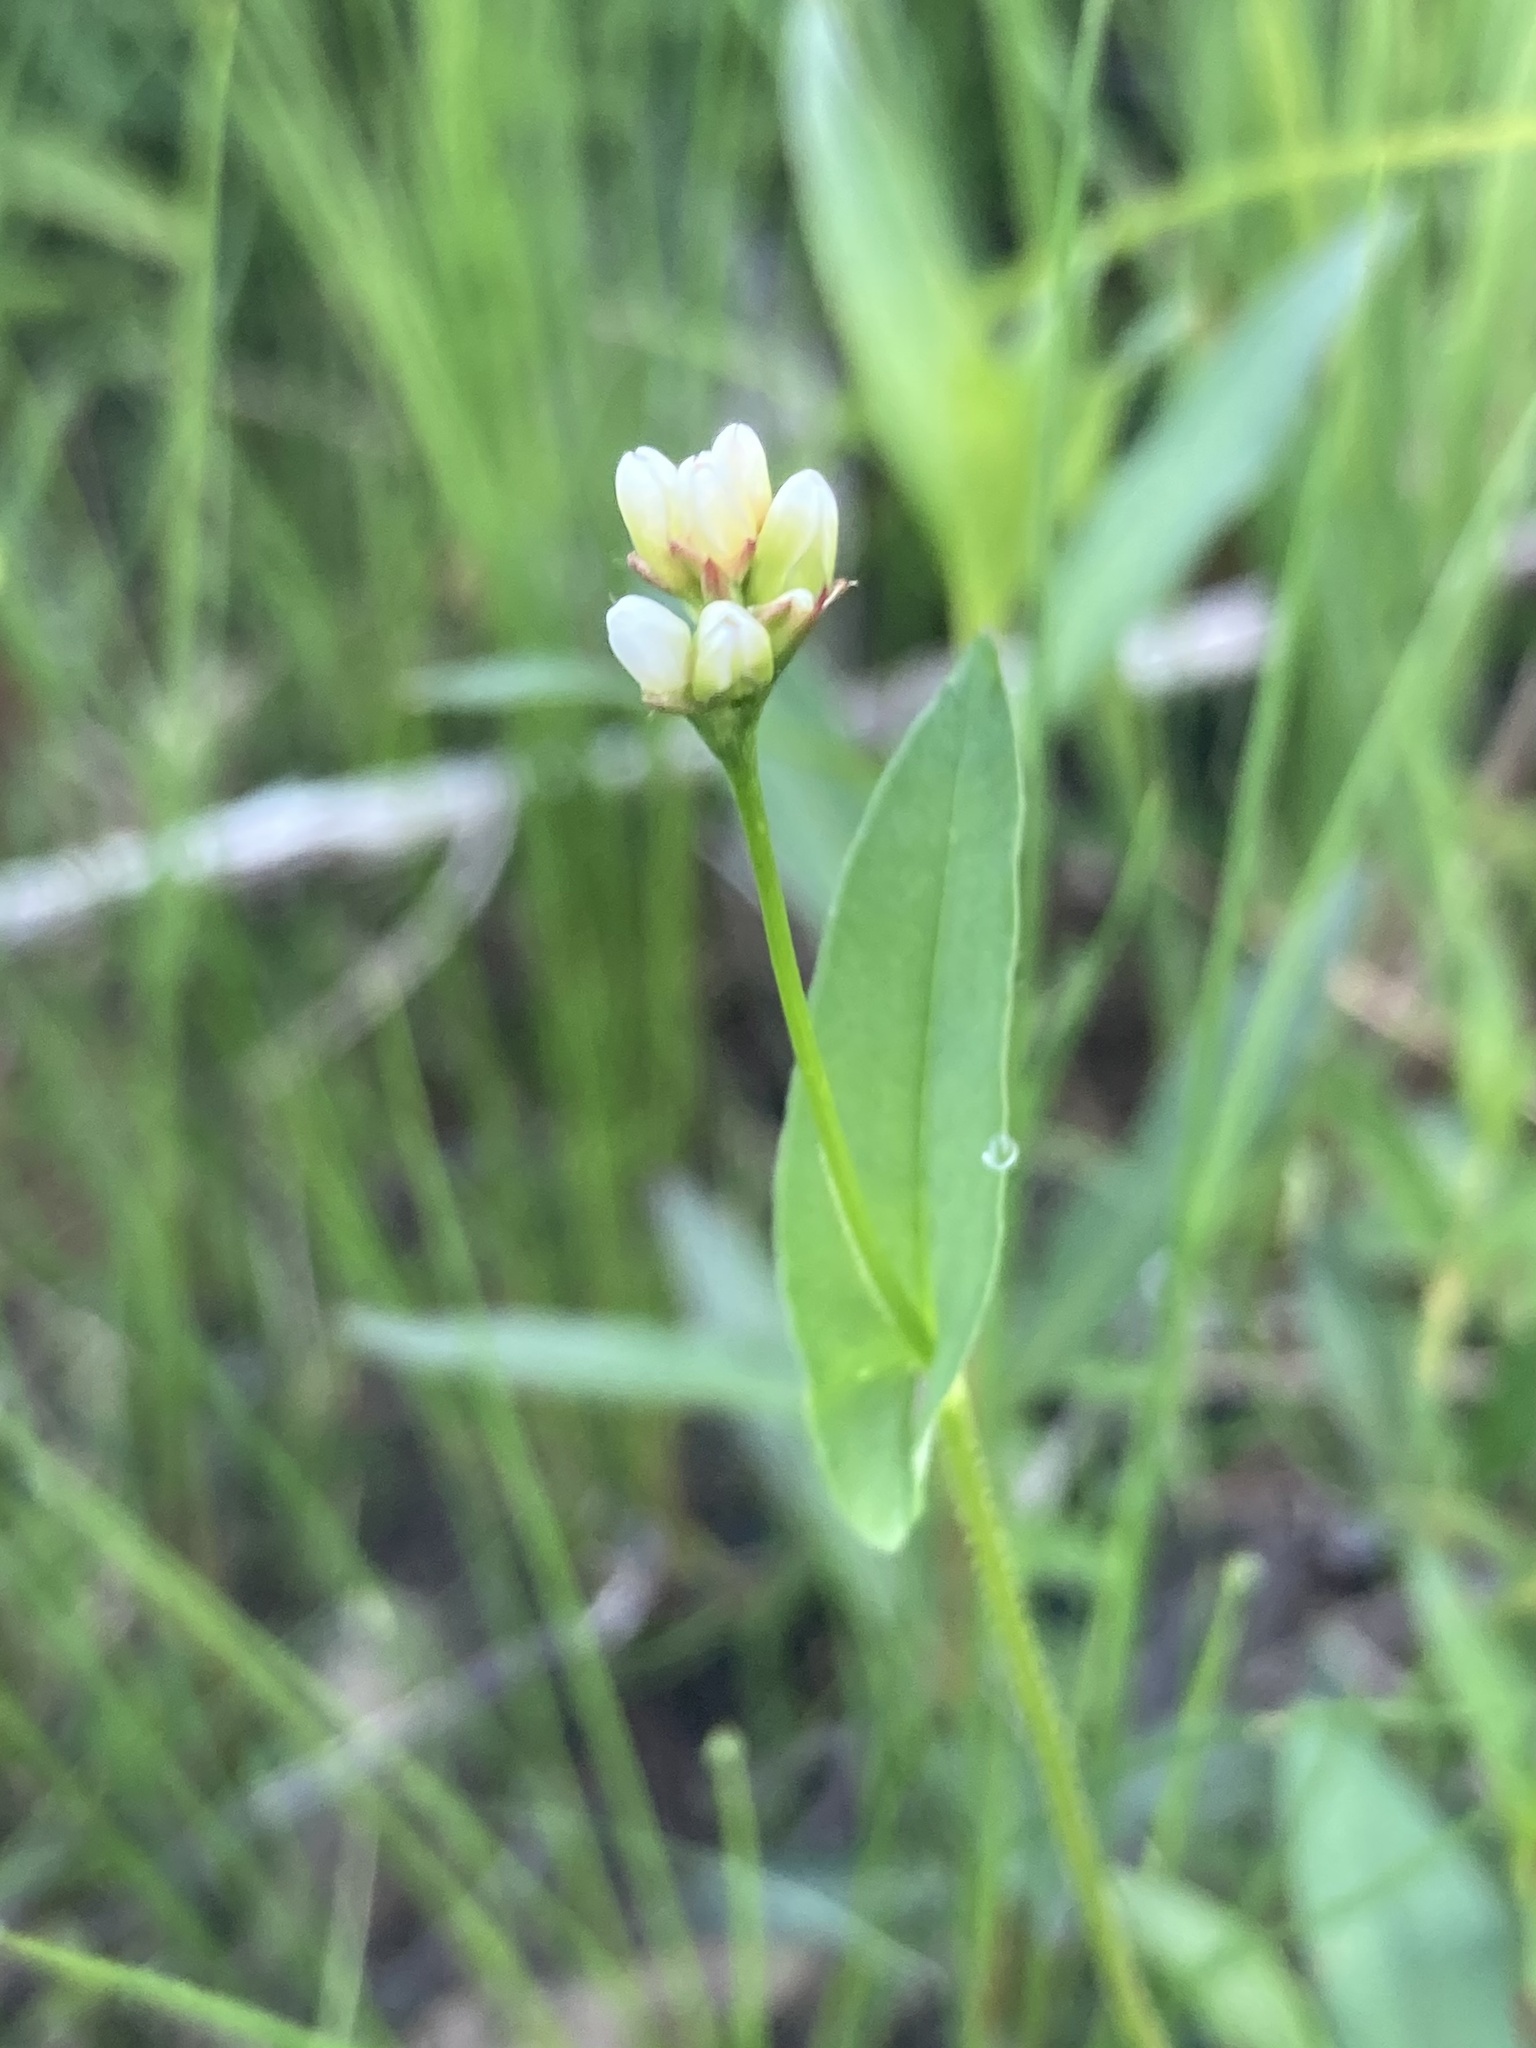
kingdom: Plantae
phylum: Tracheophyta
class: Magnoliopsida
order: Caryophyllales
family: Polygonaceae
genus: Persicaria
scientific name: Persicaria sagittata
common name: American tearthumb
